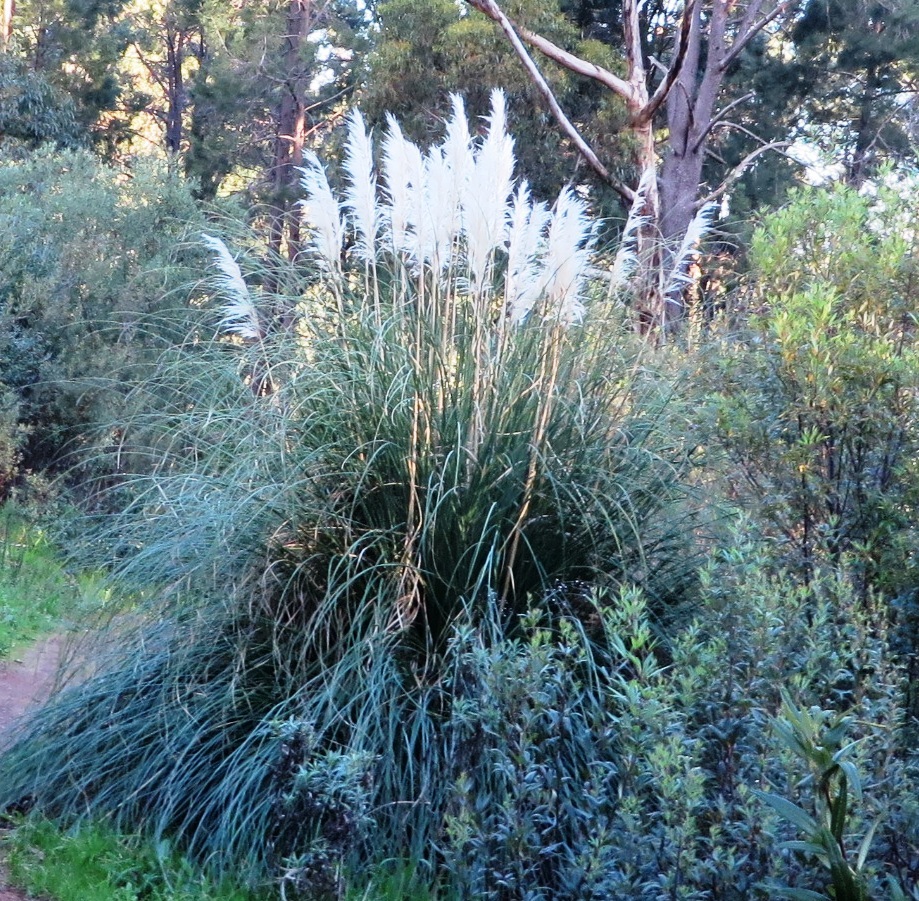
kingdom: Plantae
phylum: Tracheophyta
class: Liliopsida
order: Poales
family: Poaceae
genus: Cortaderia
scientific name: Cortaderia selloana
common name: Uruguayan pampas grass
